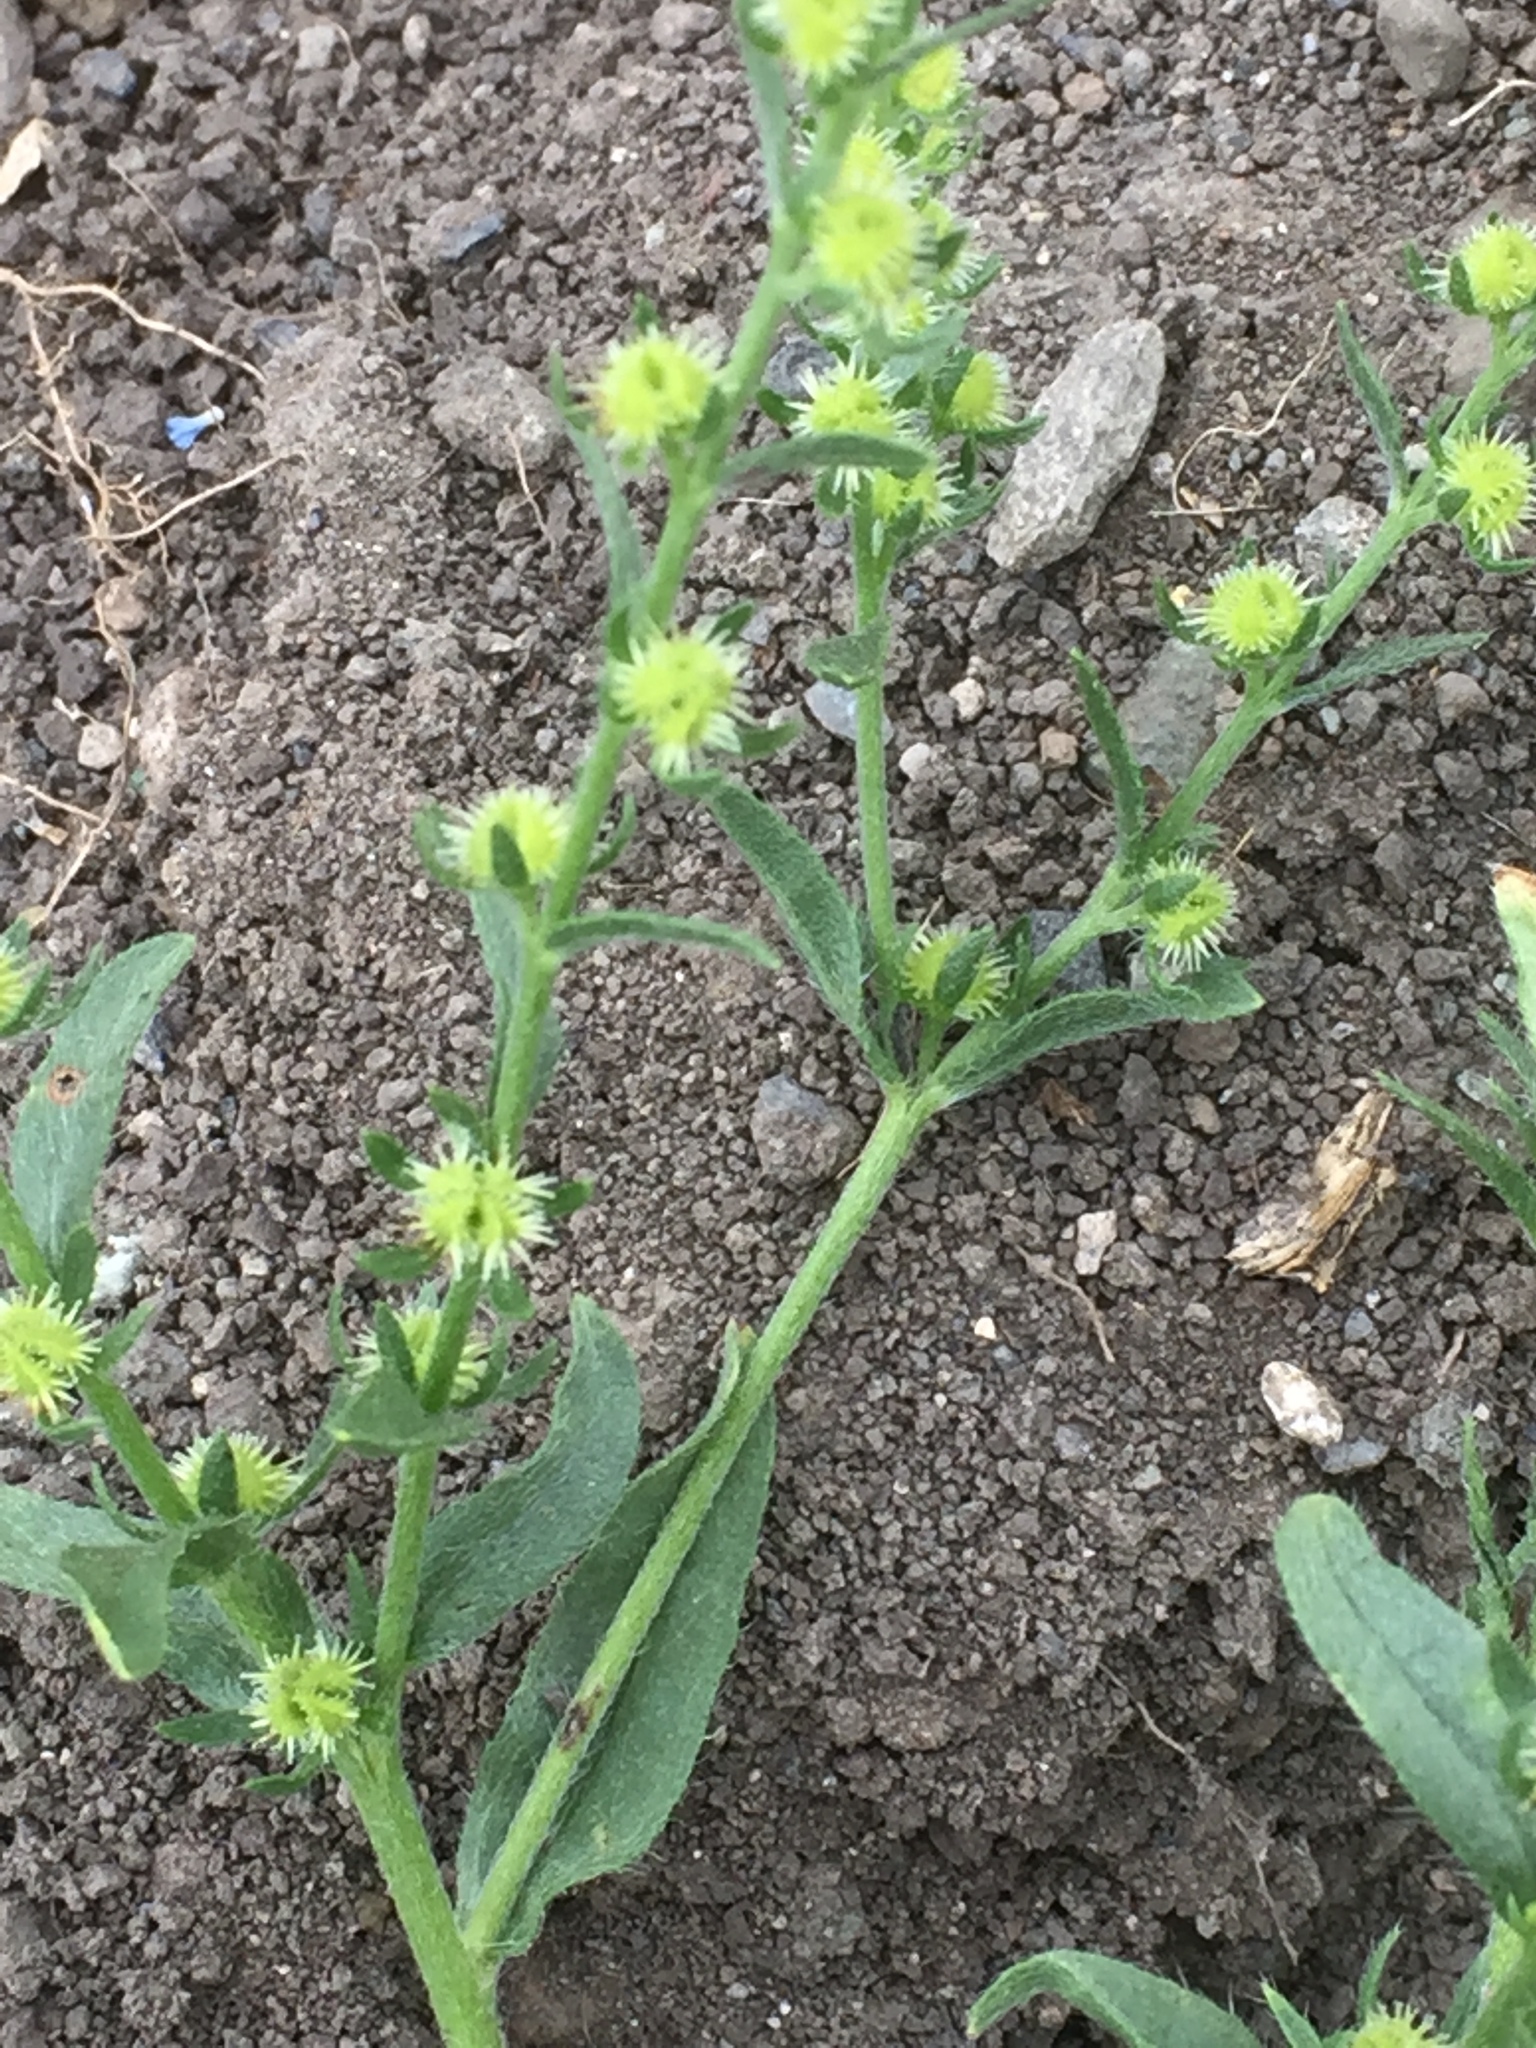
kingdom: Plantae
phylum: Tracheophyta
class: Magnoliopsida
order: Boraginales
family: Boraginaceae
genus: Asperugo
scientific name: Asperugo procumbens
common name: Madwort
